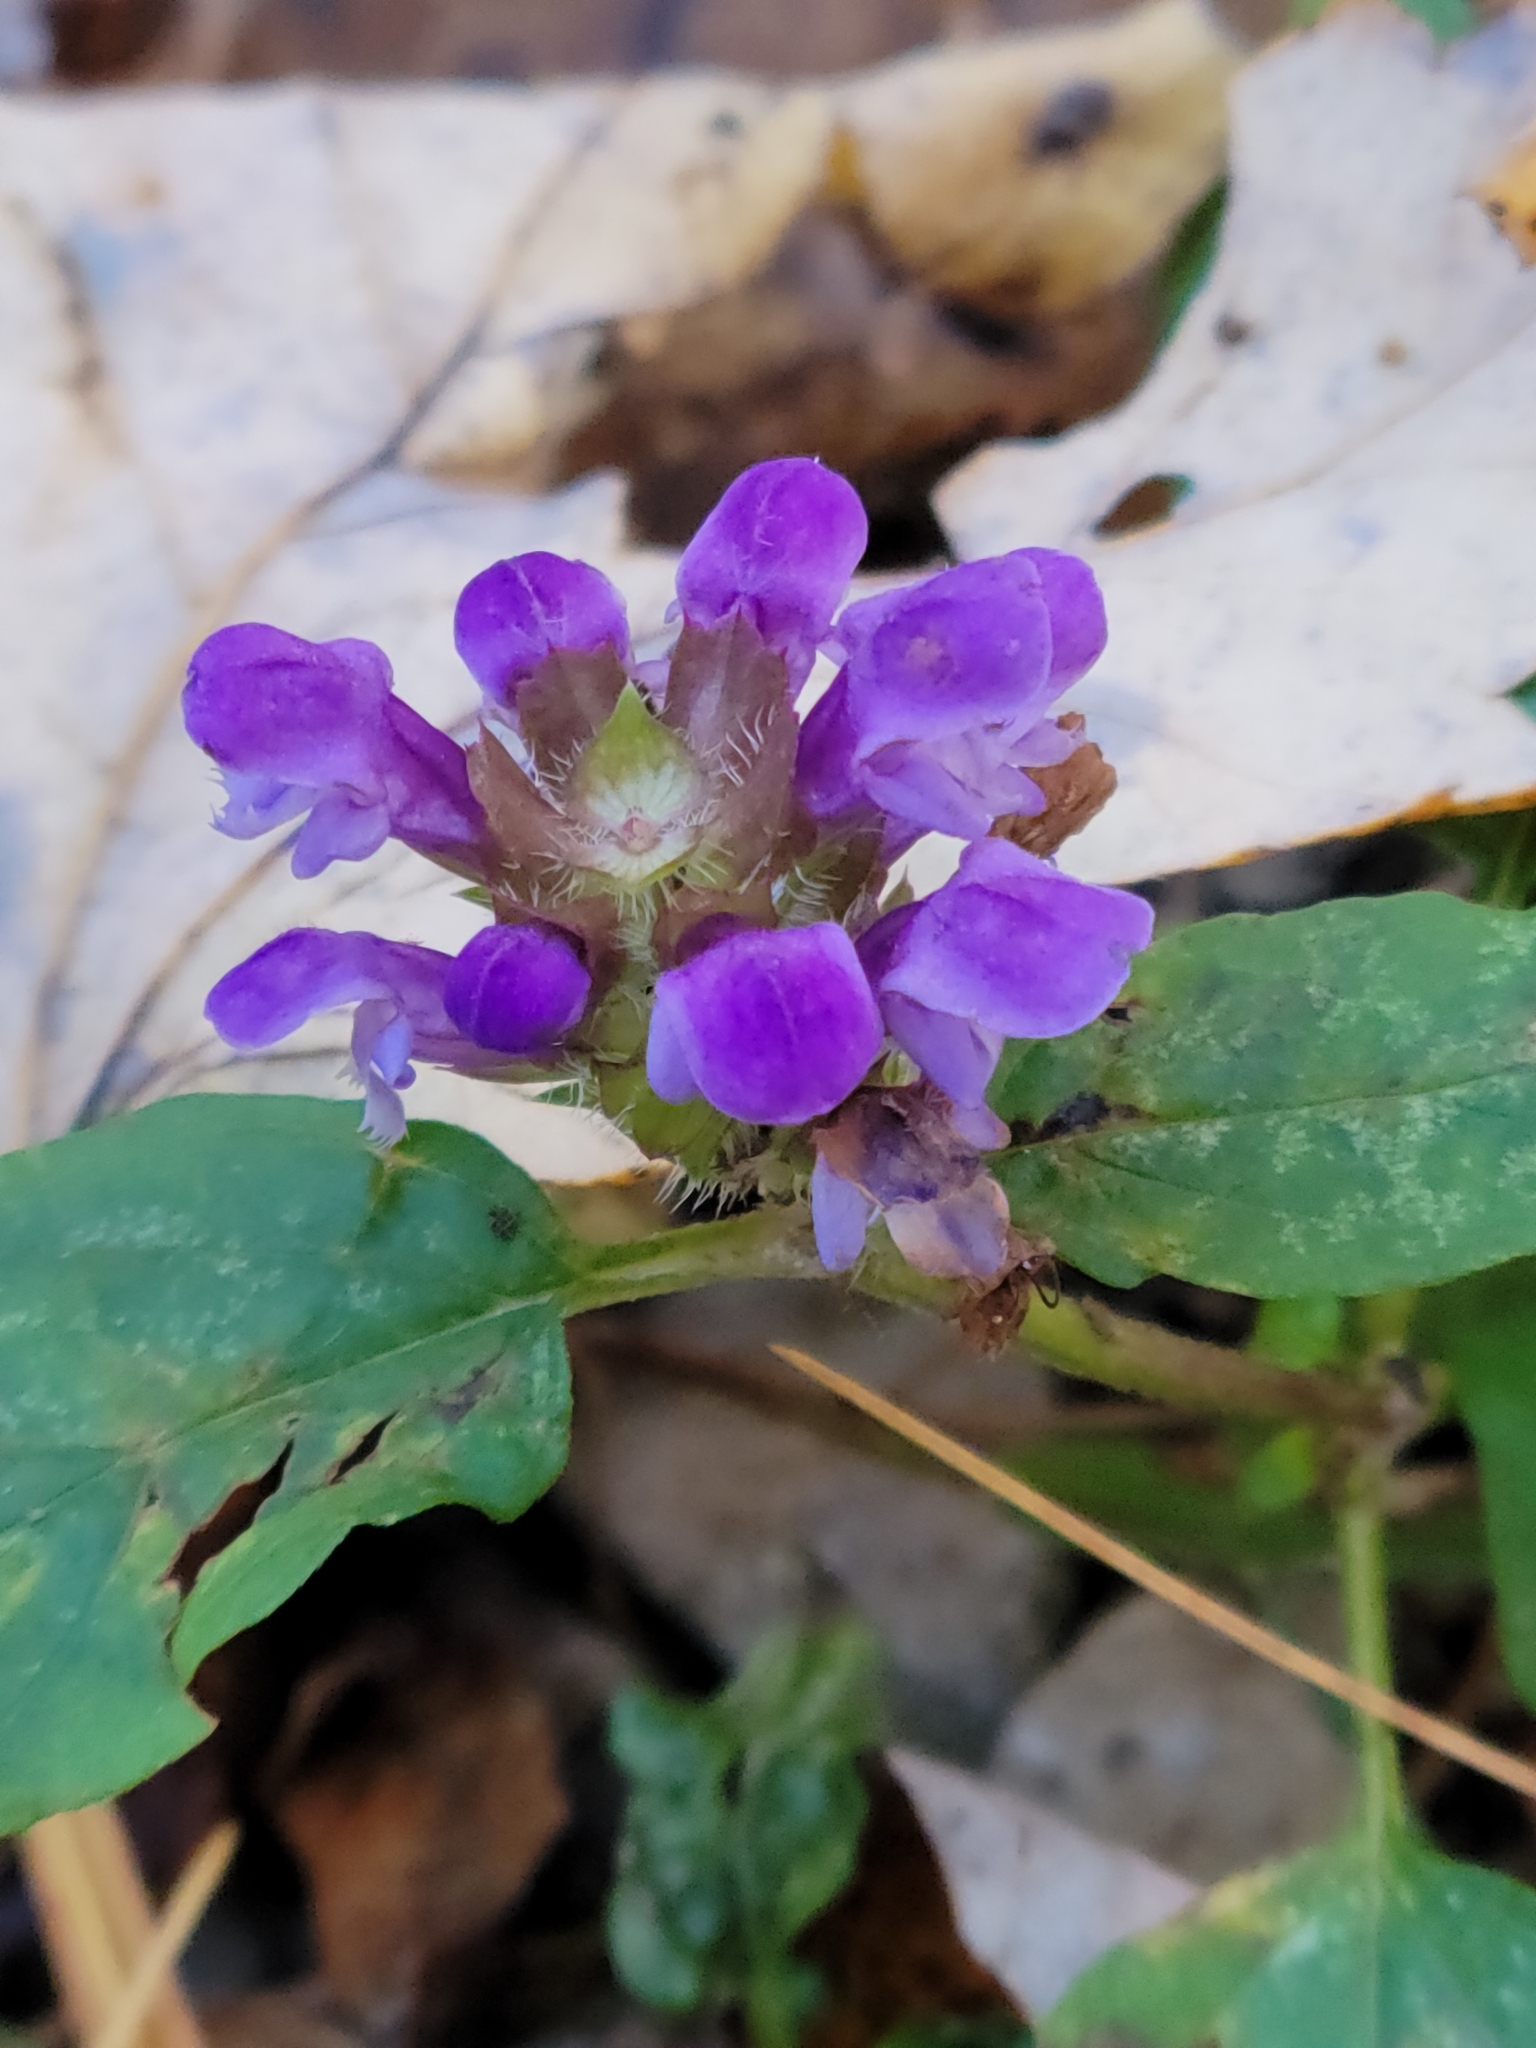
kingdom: Plantae
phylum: Tracheophyta
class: Magnoliopsida
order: Lamiales
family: Lamiaceae
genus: Prunella
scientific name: Prunella vulgaris
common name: Heal-all
